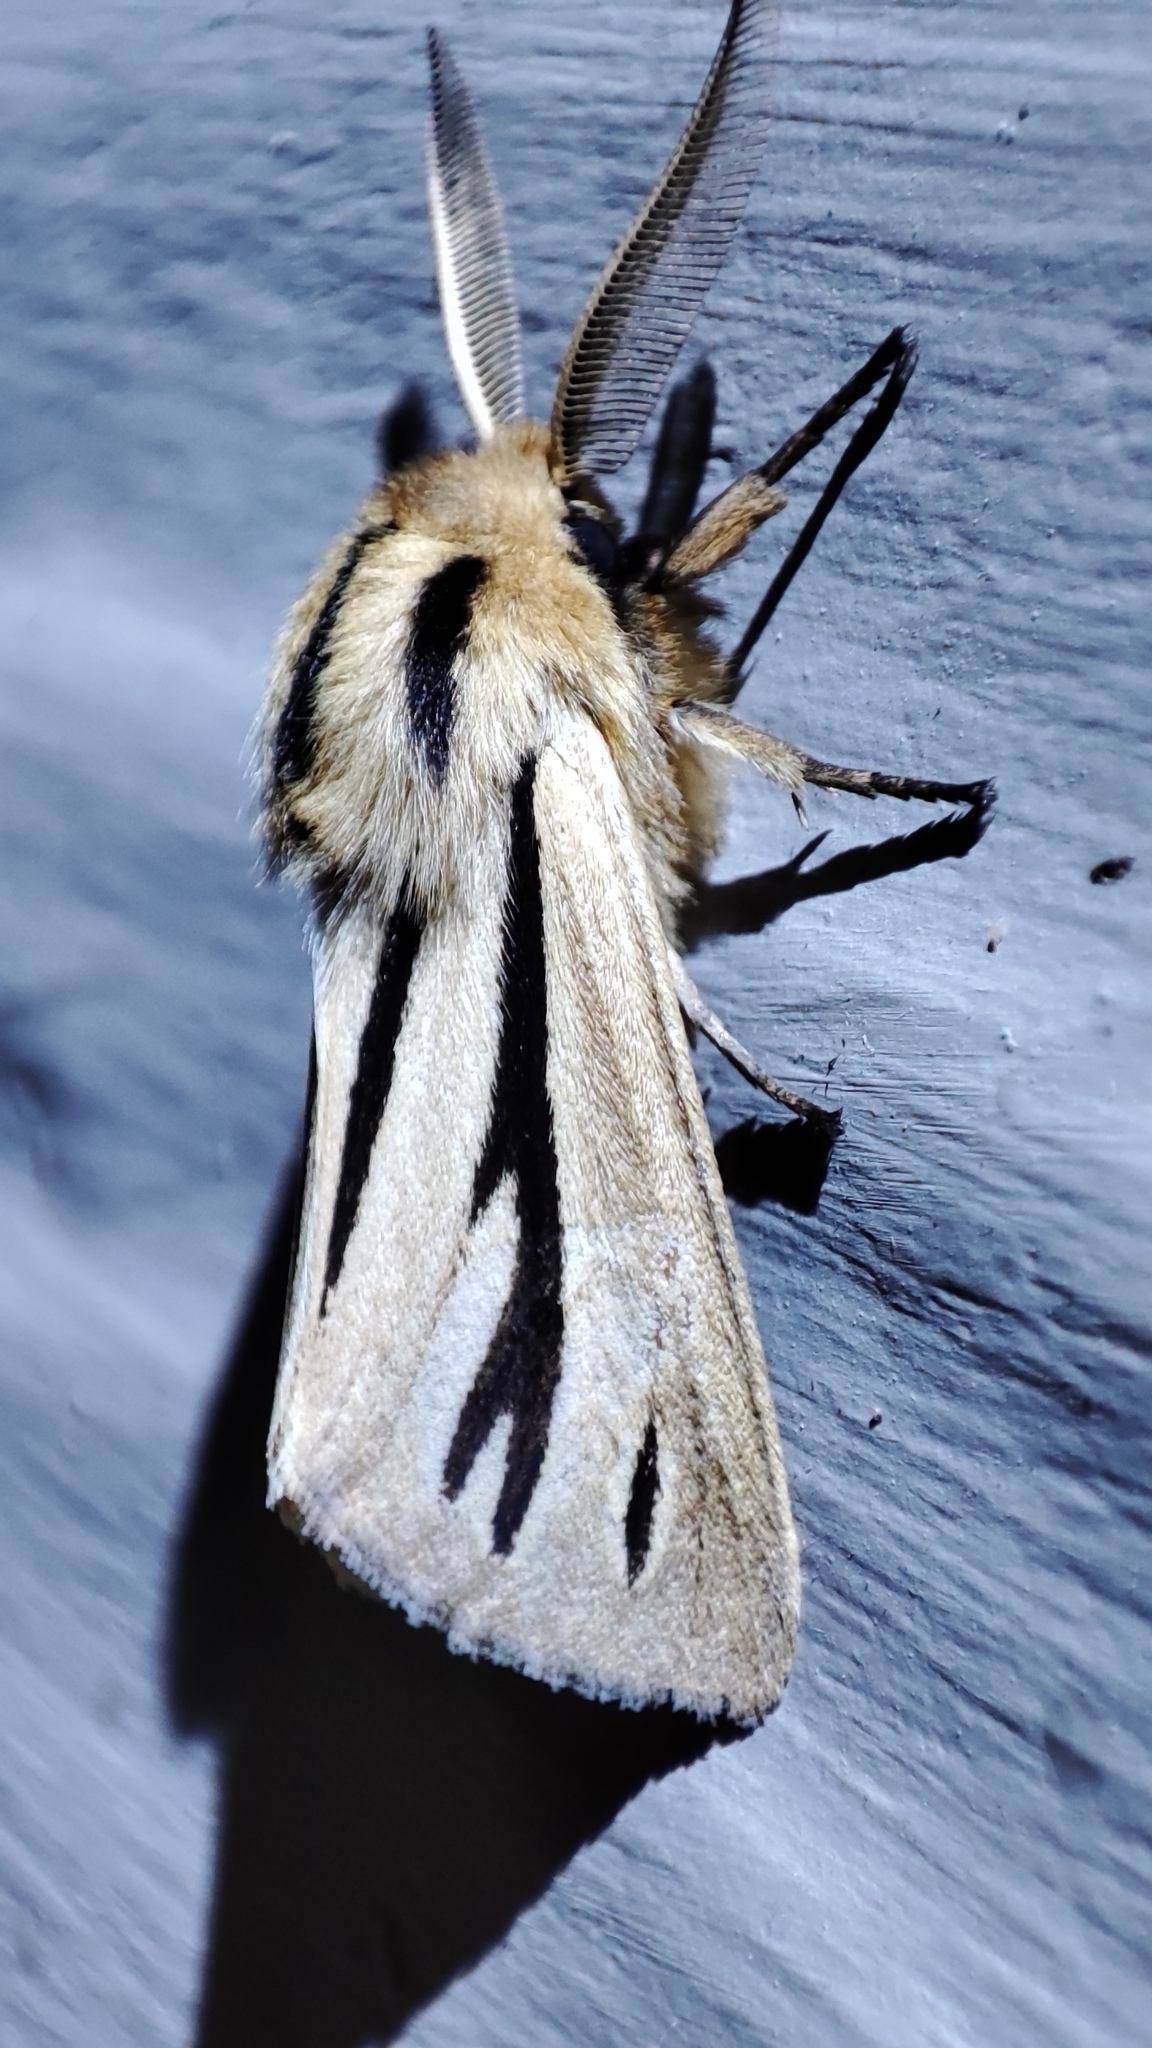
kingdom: Animalia
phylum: Arthropoda
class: Insecta
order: Lepidoptera
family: Erebidae
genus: Popoudina
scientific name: Popoudina linea
